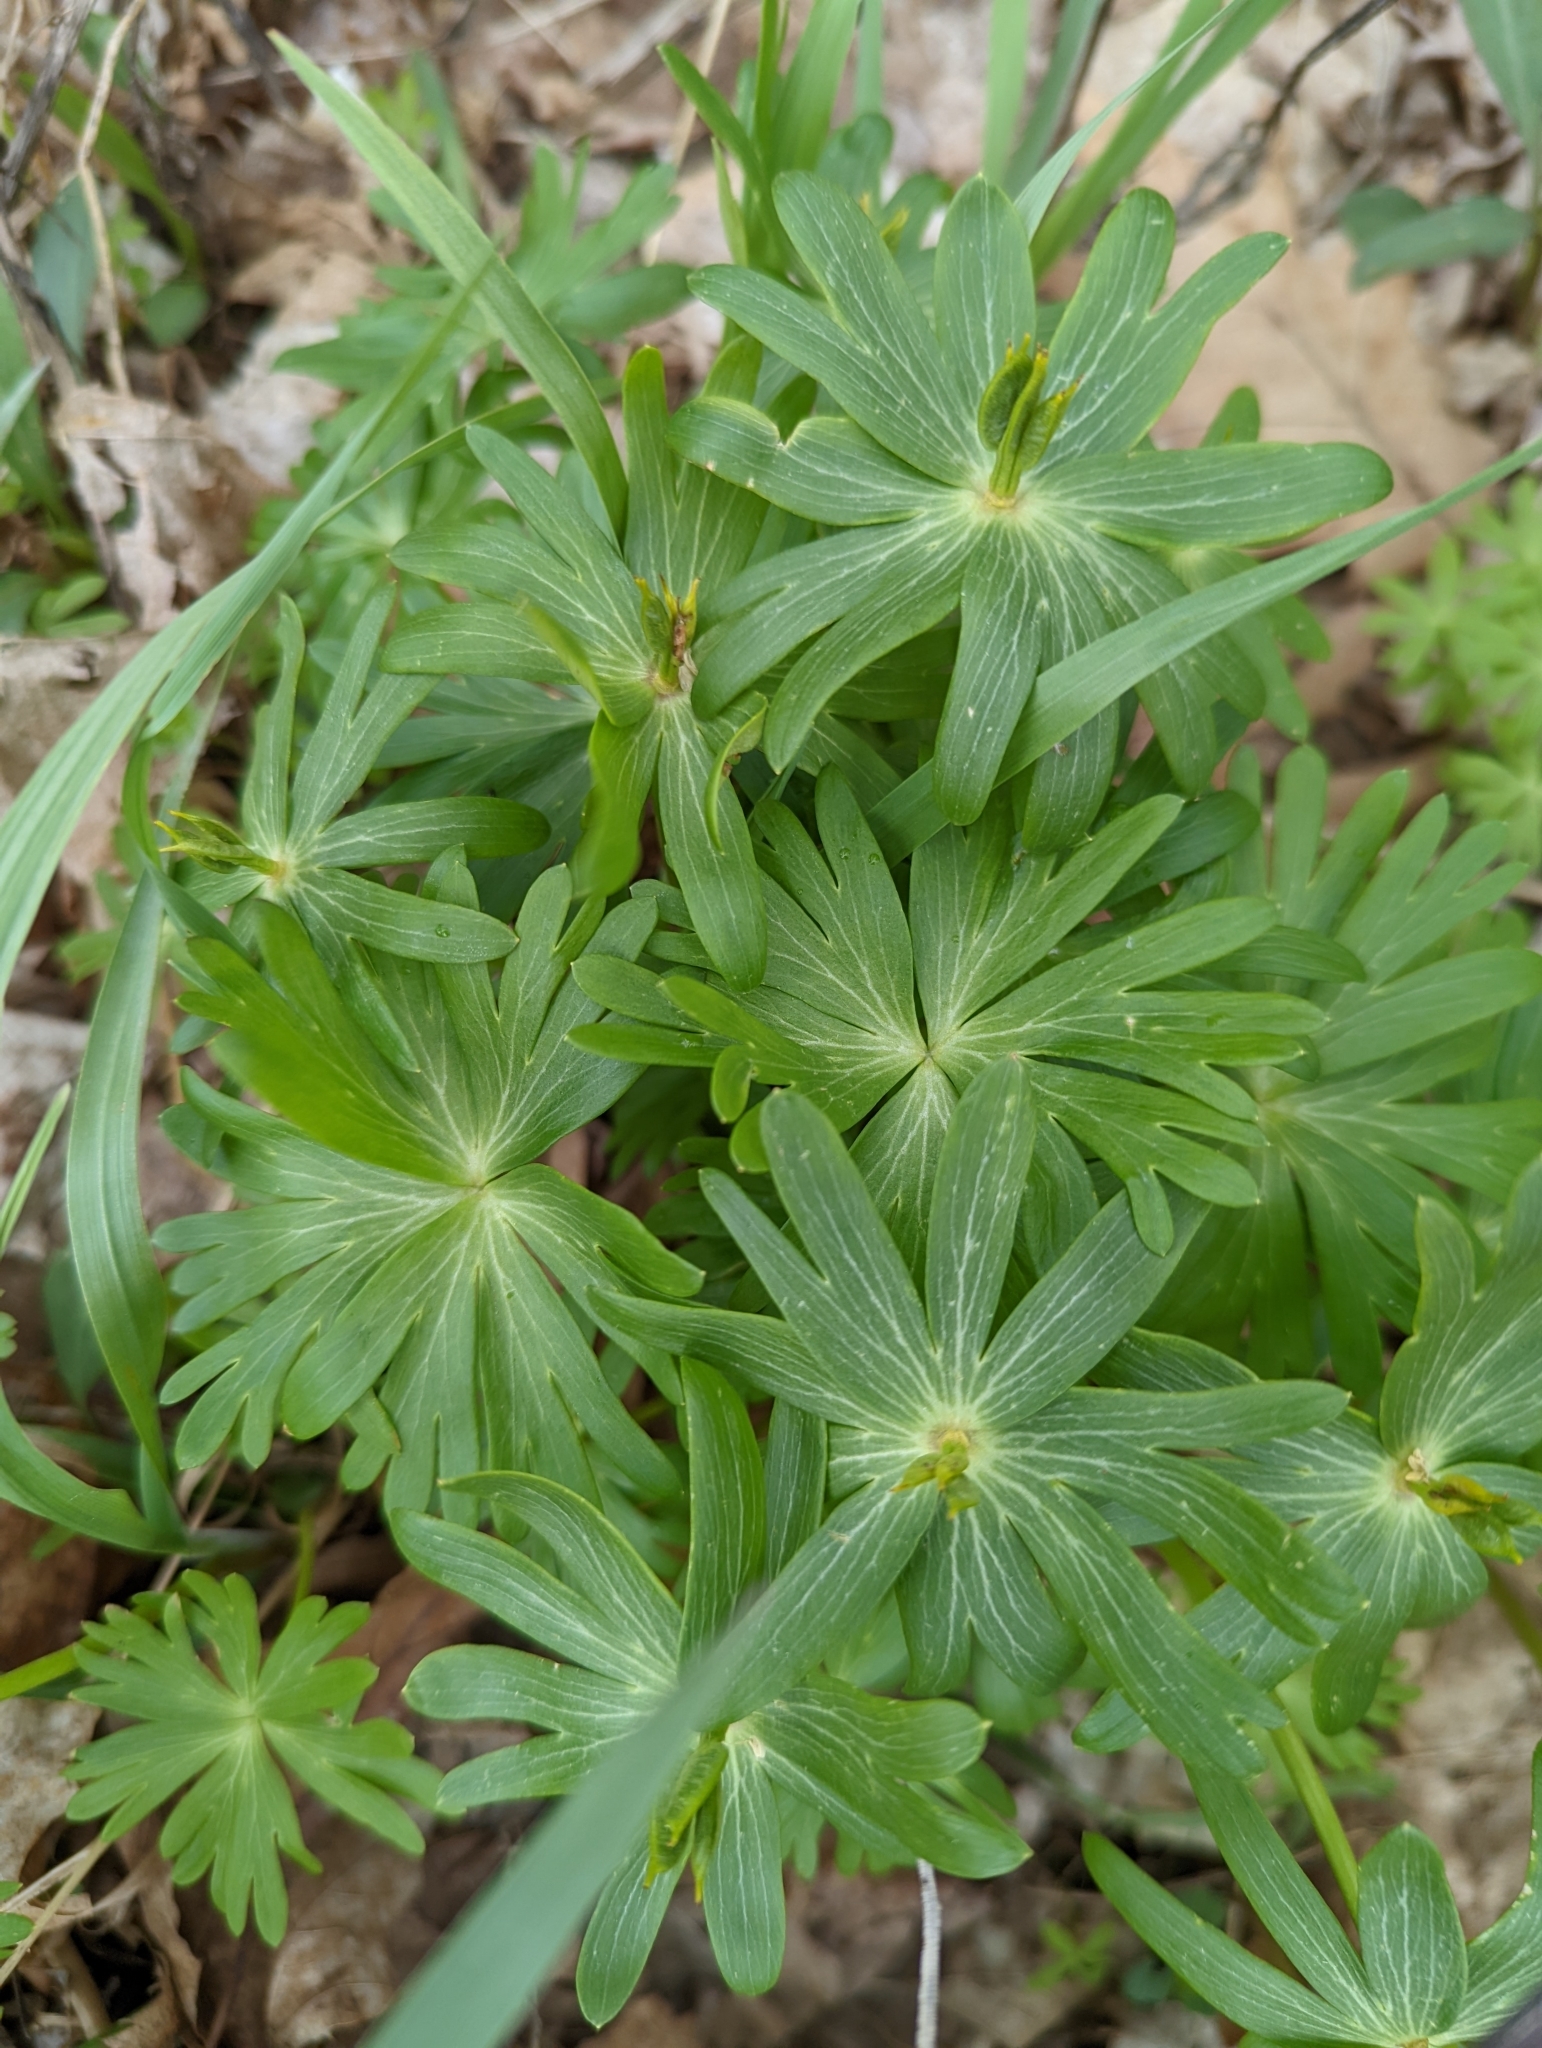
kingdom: Plantae
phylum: Tracheophyta
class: Magnoliopsida
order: Ranunculales
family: Ranunculaceae
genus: Eranthis
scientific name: Eranthis hyemalis
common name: Winter aconite
